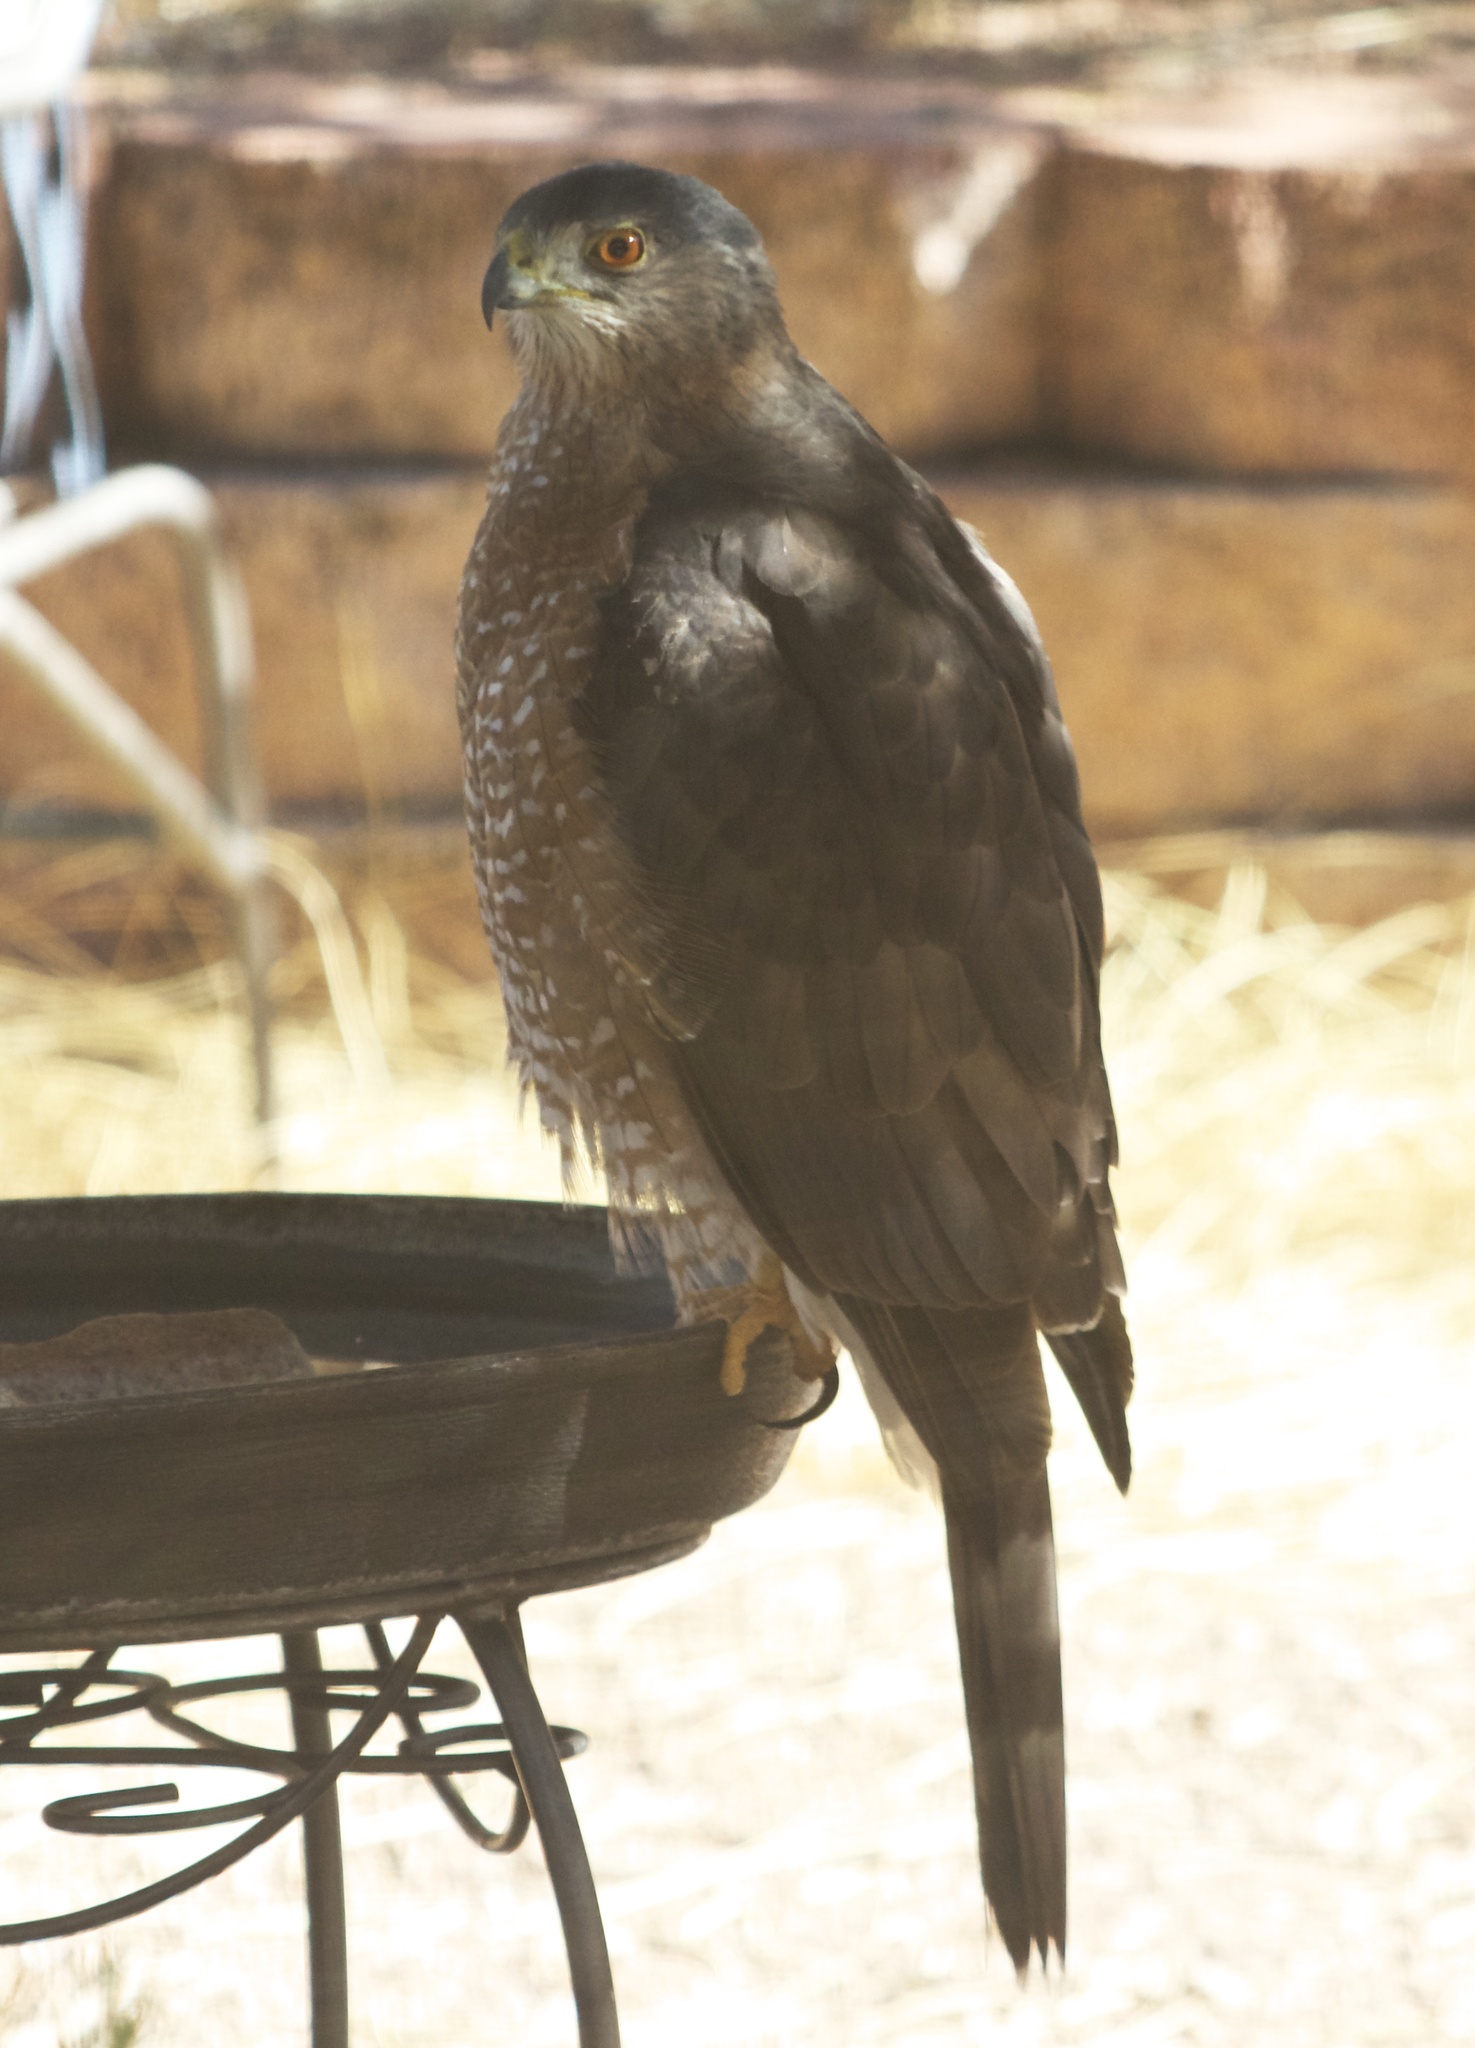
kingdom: Animalia
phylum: Chordata
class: Aves
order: Accipitriformes
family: Accipitridae
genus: Accipiter
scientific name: Accipiter cooperii
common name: Cooper's hawk
